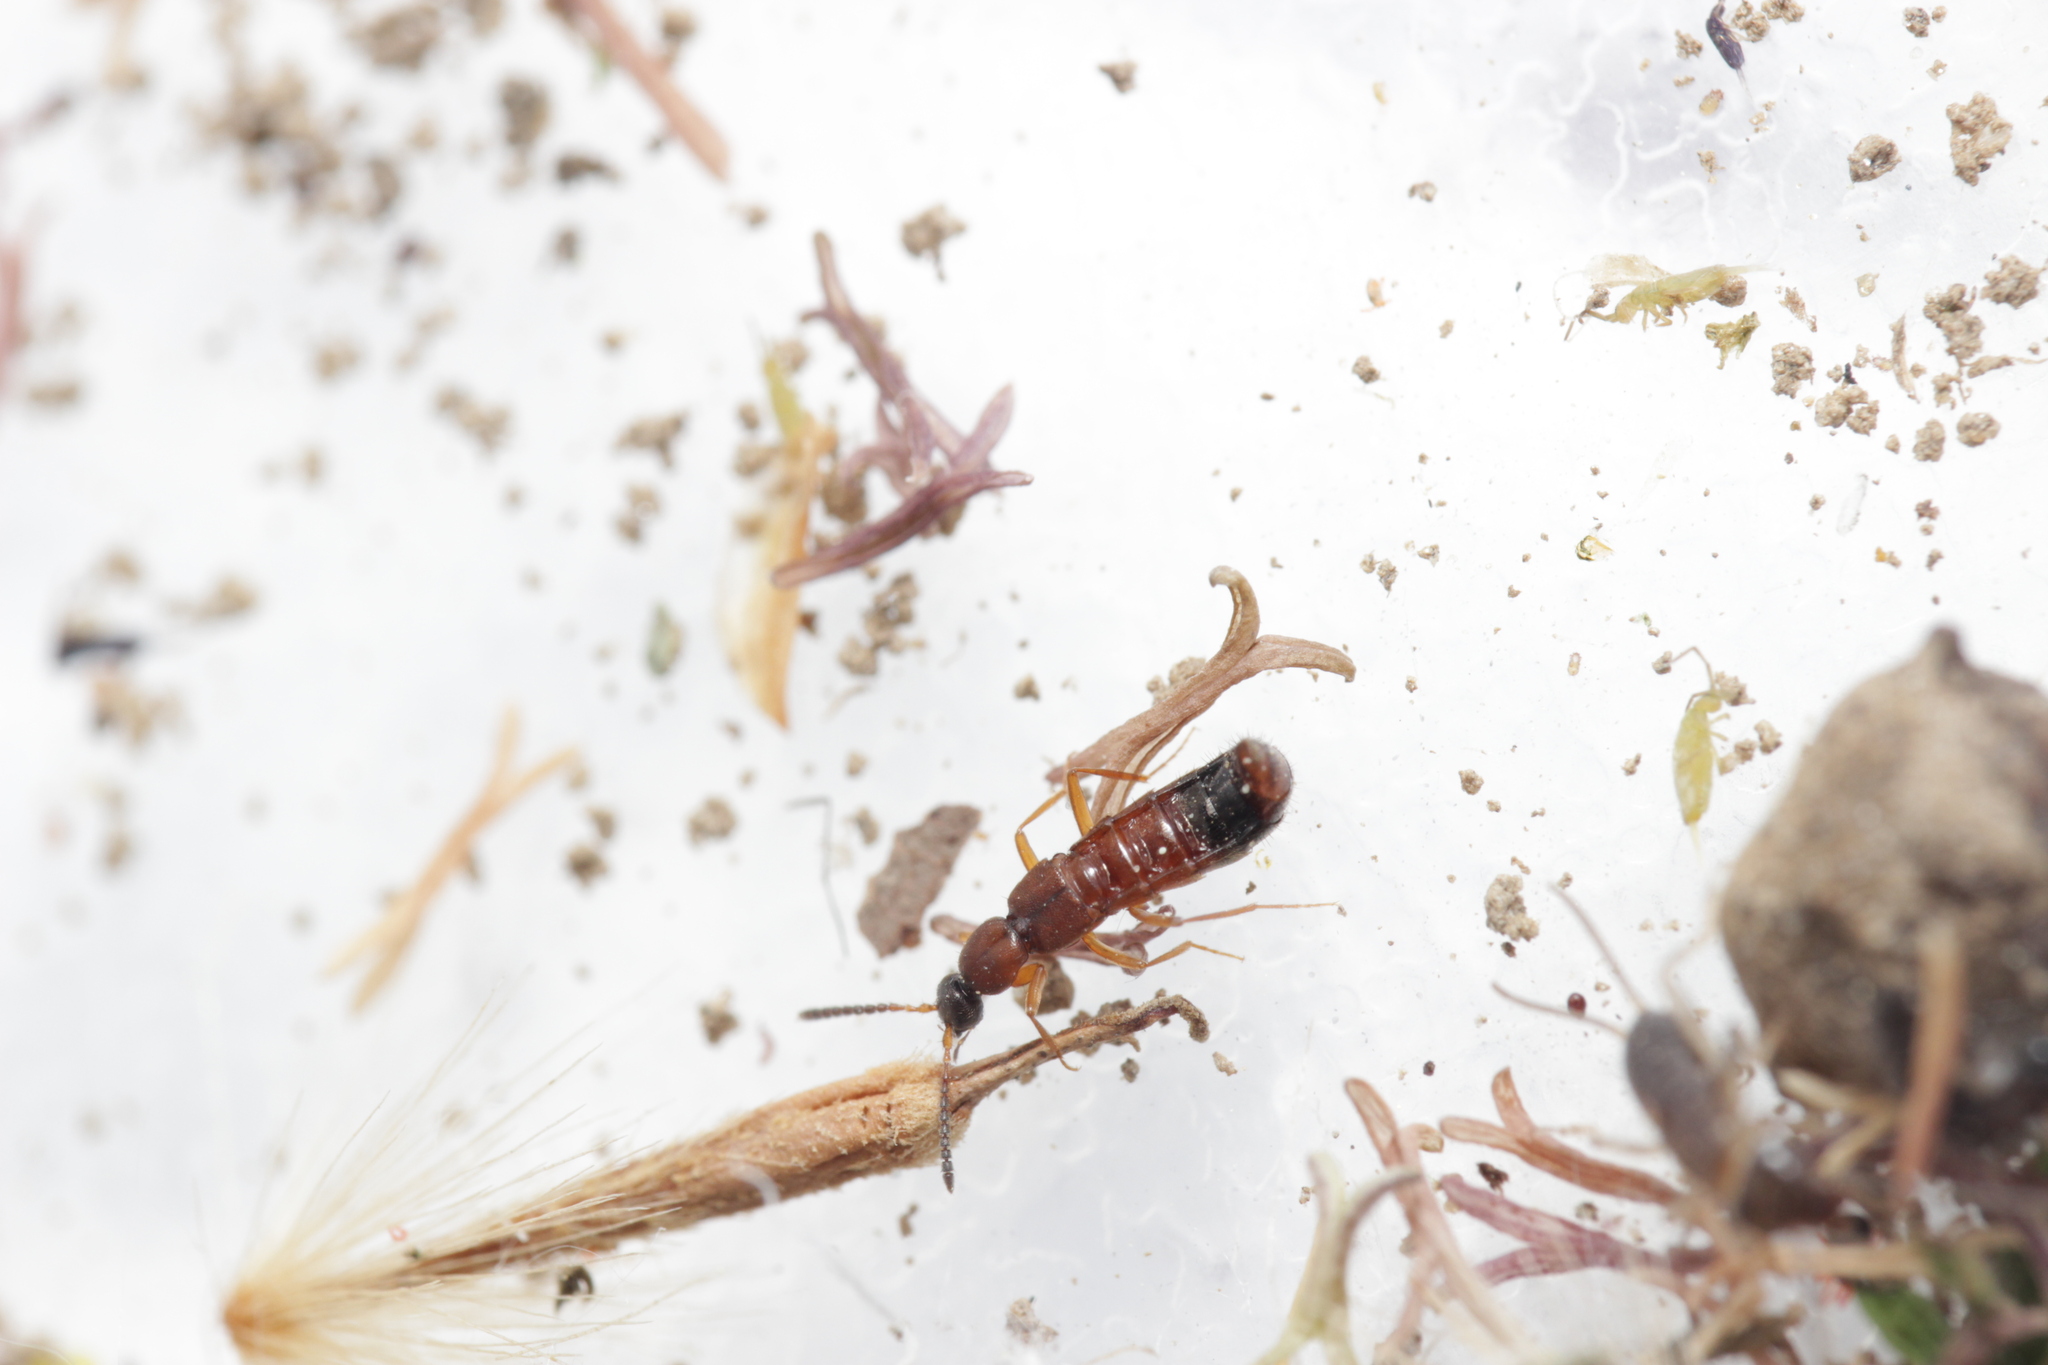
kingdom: Animalia
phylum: Arthropoda
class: Insecta
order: Coleoptera
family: Staphylinidae
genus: Drusilla
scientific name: Drusilla canaliculata
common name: Rove beetle
